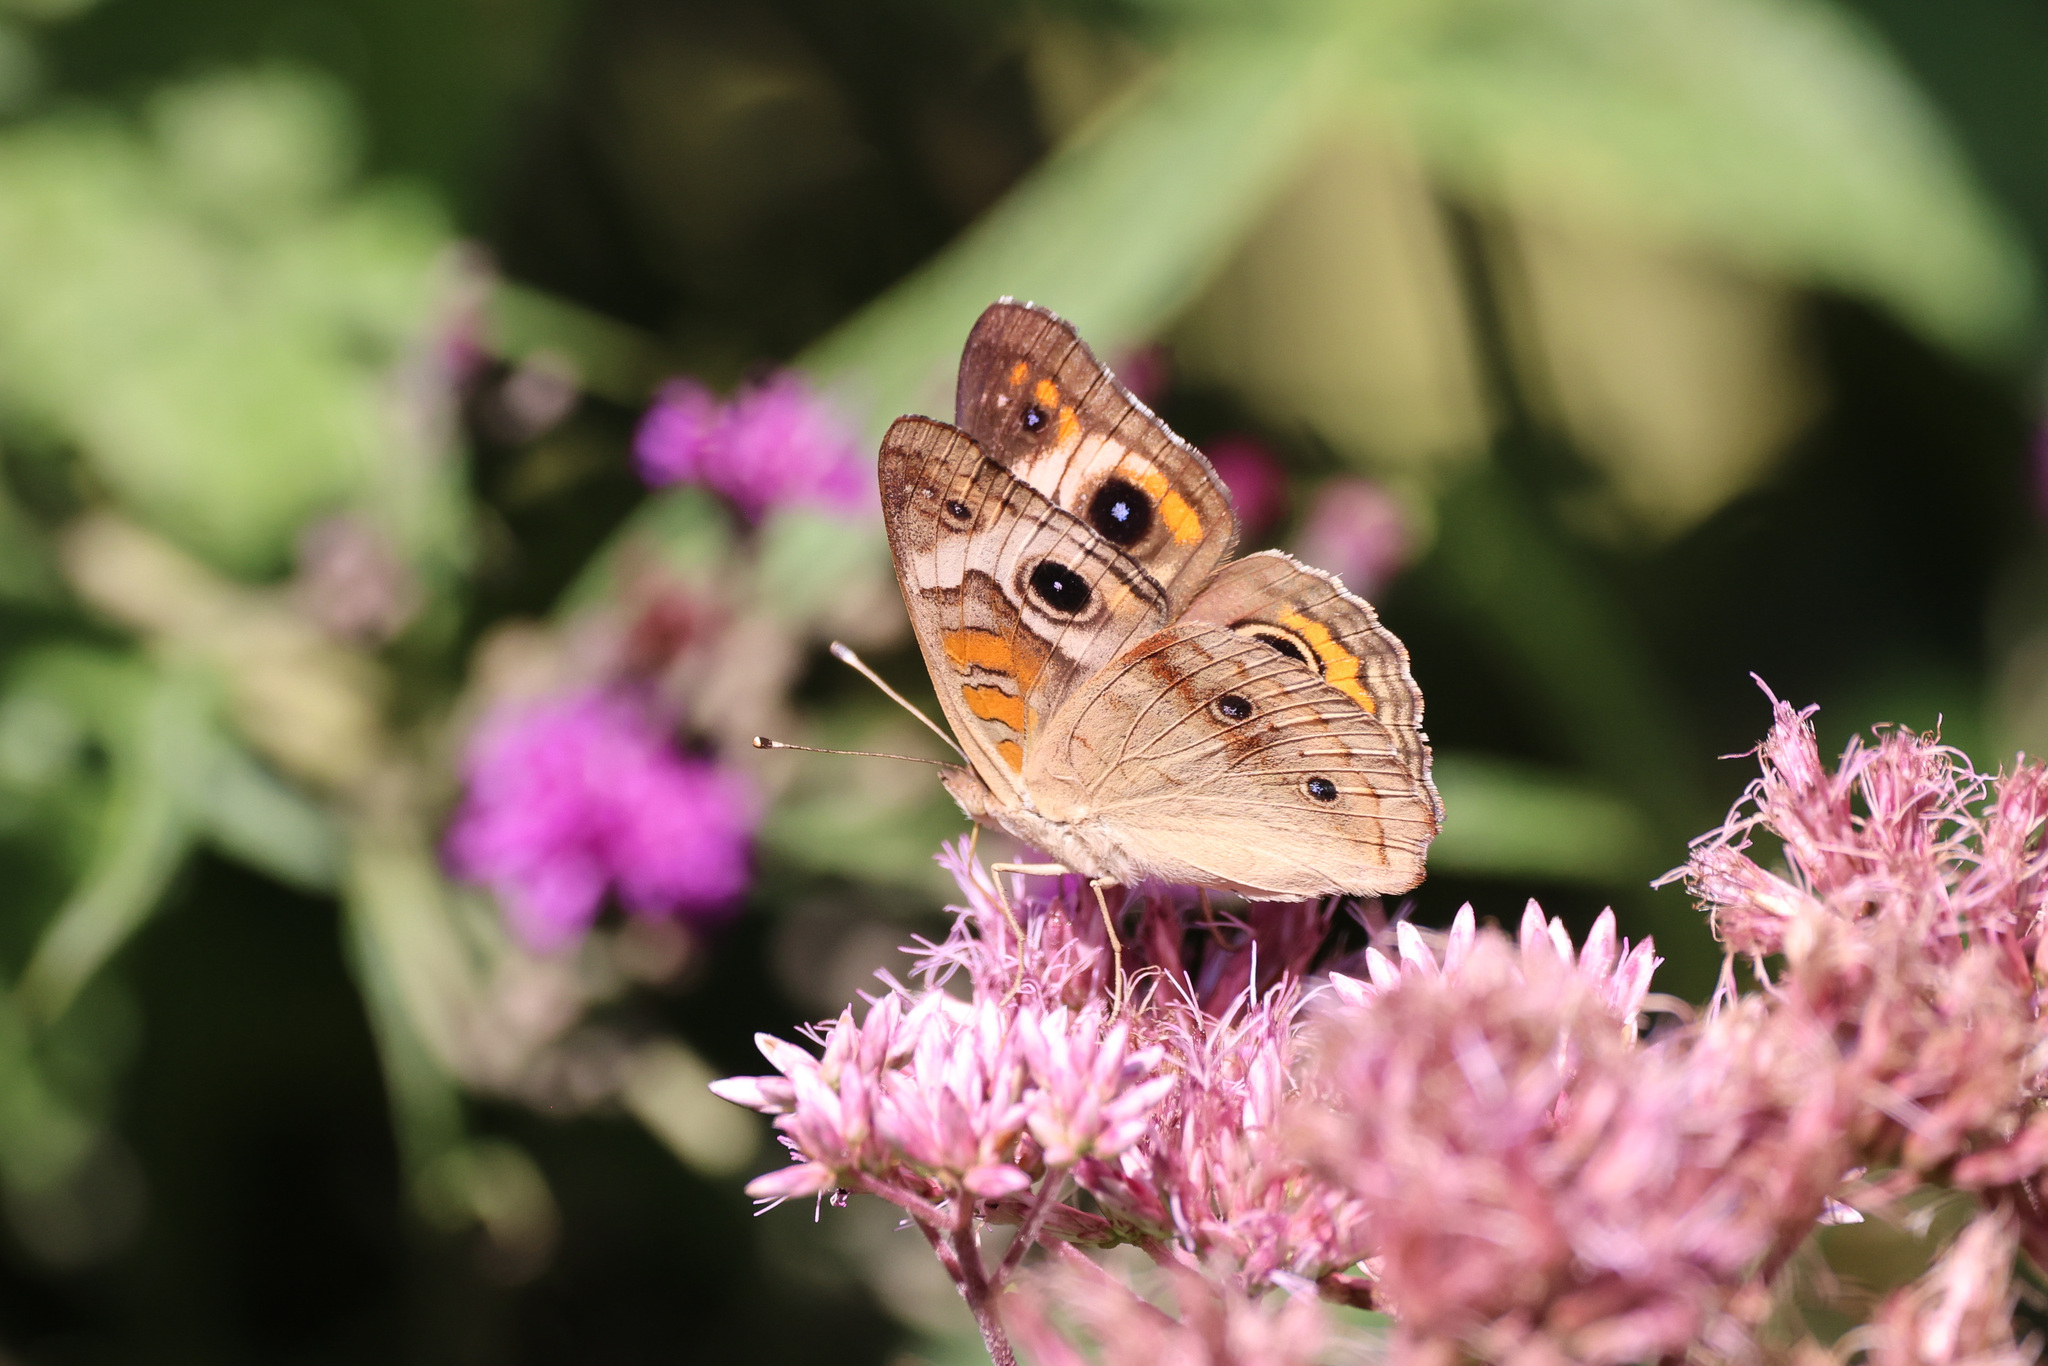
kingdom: Animalia
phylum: Arthropoda
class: Insecta
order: Lepidoptera
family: Nymphalidae
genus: Junonia
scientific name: Junonia coenia
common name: Common buckeye
